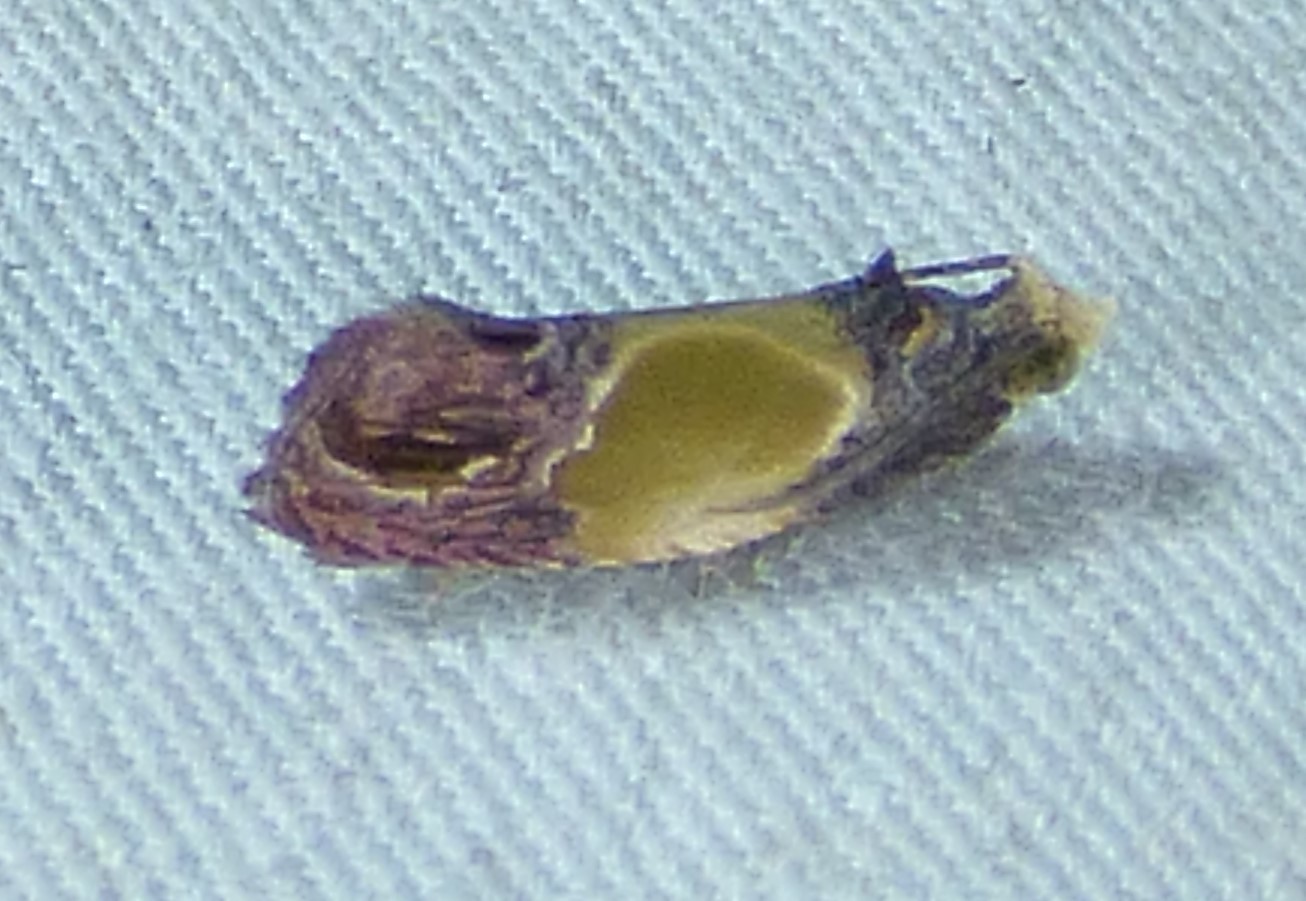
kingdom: Animalia
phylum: Arthropoda
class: Insecta
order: Lepidoptera
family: Tortricidae
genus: Eumarozia
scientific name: Eumarozia malachitana
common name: Sculptured moth
